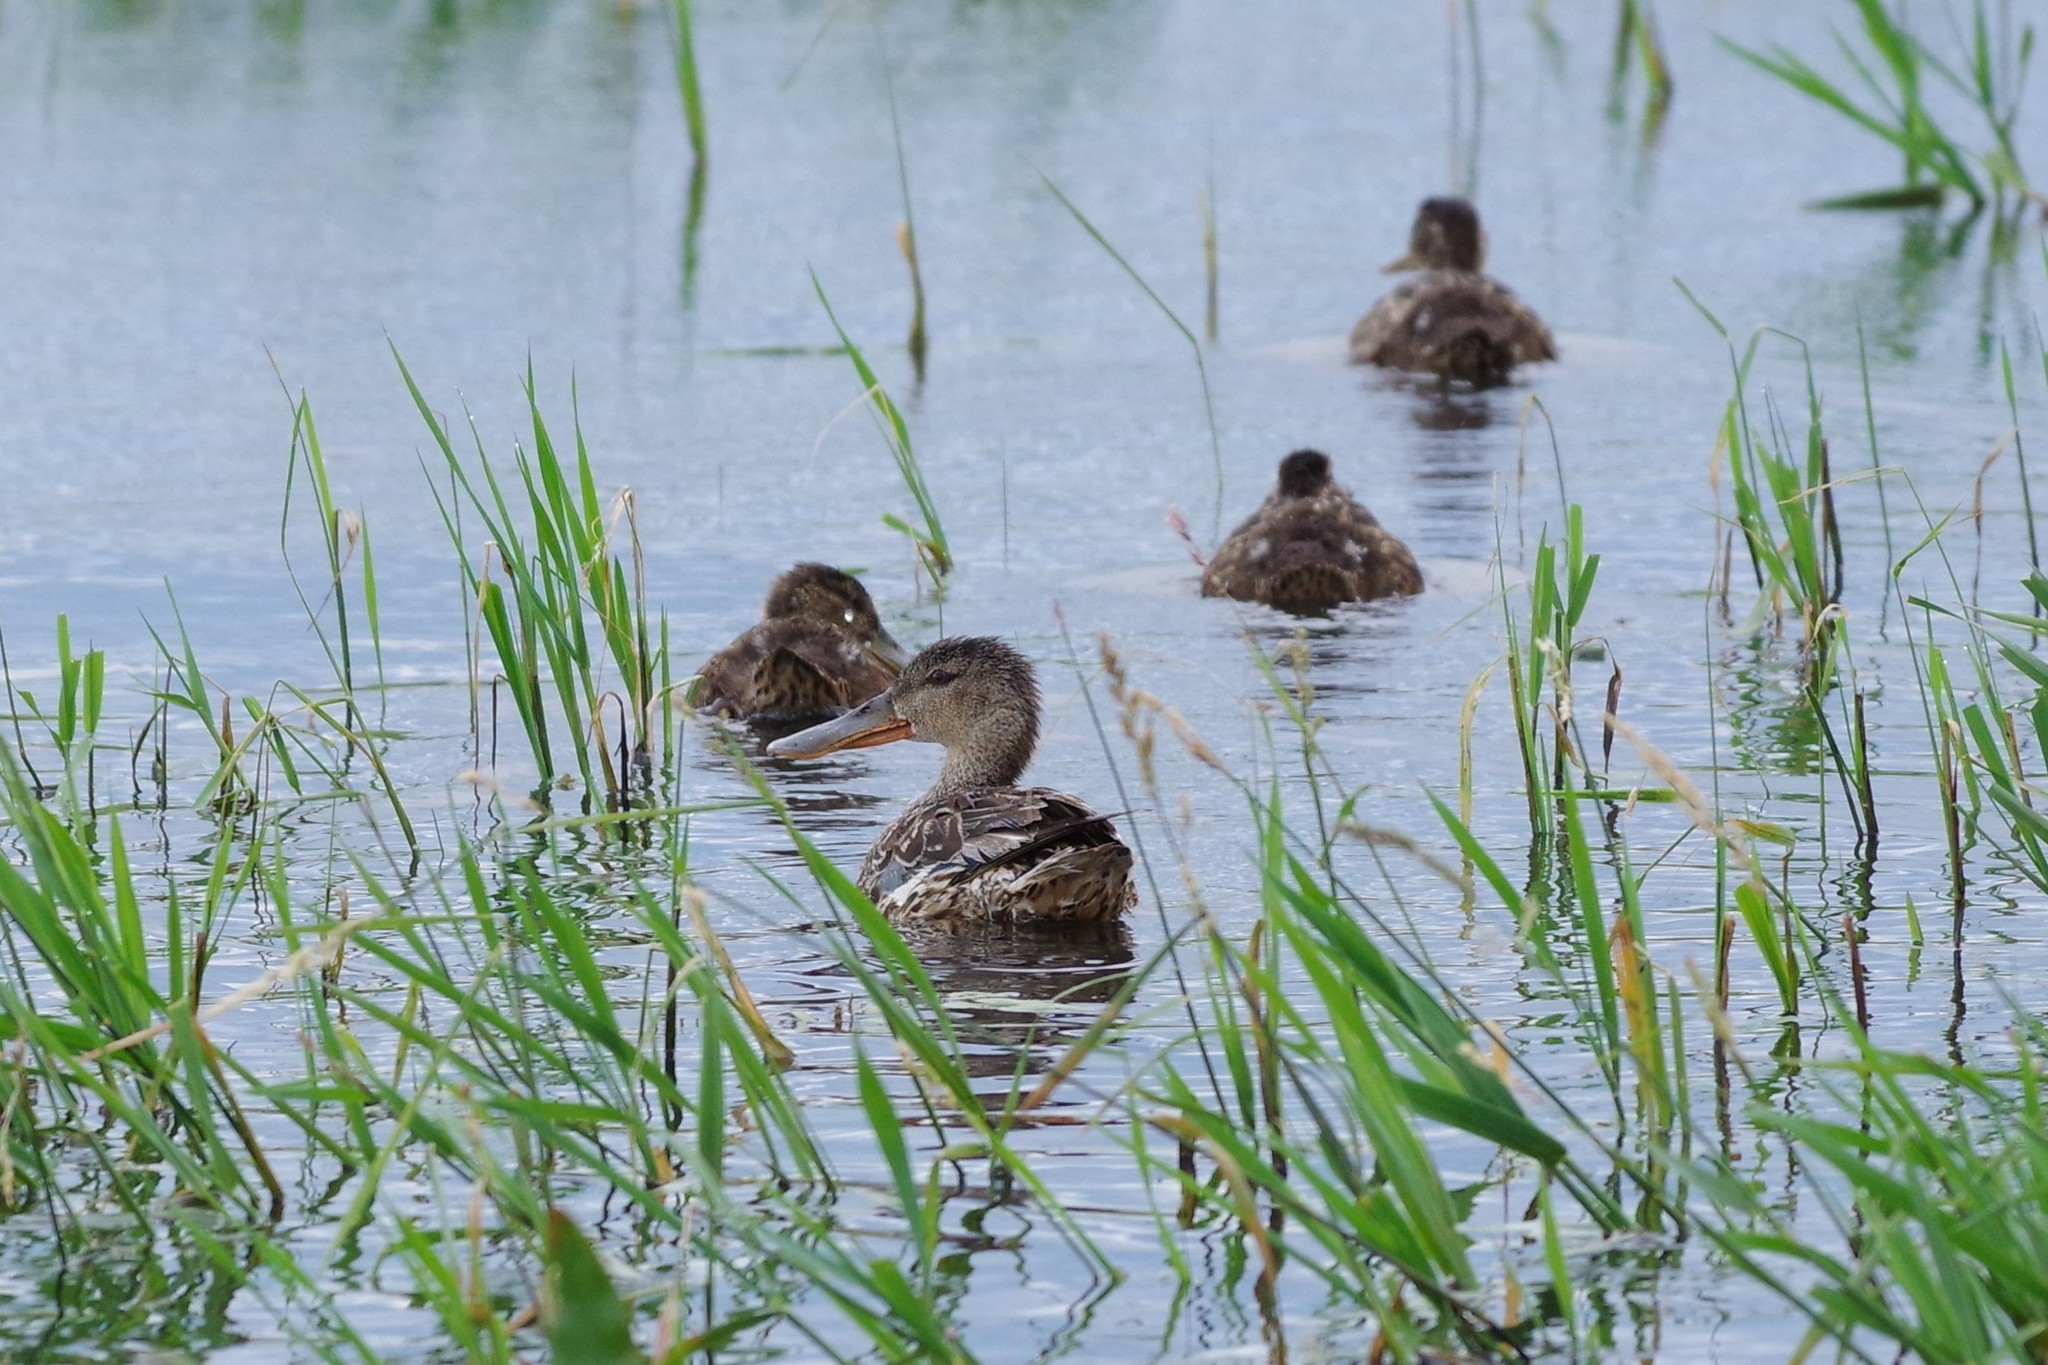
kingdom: Animalia
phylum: Chordata
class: Aves
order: Anseriformes
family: Anatidae
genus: Spatula
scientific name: Spatula clypeata
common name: Northern shoveler
